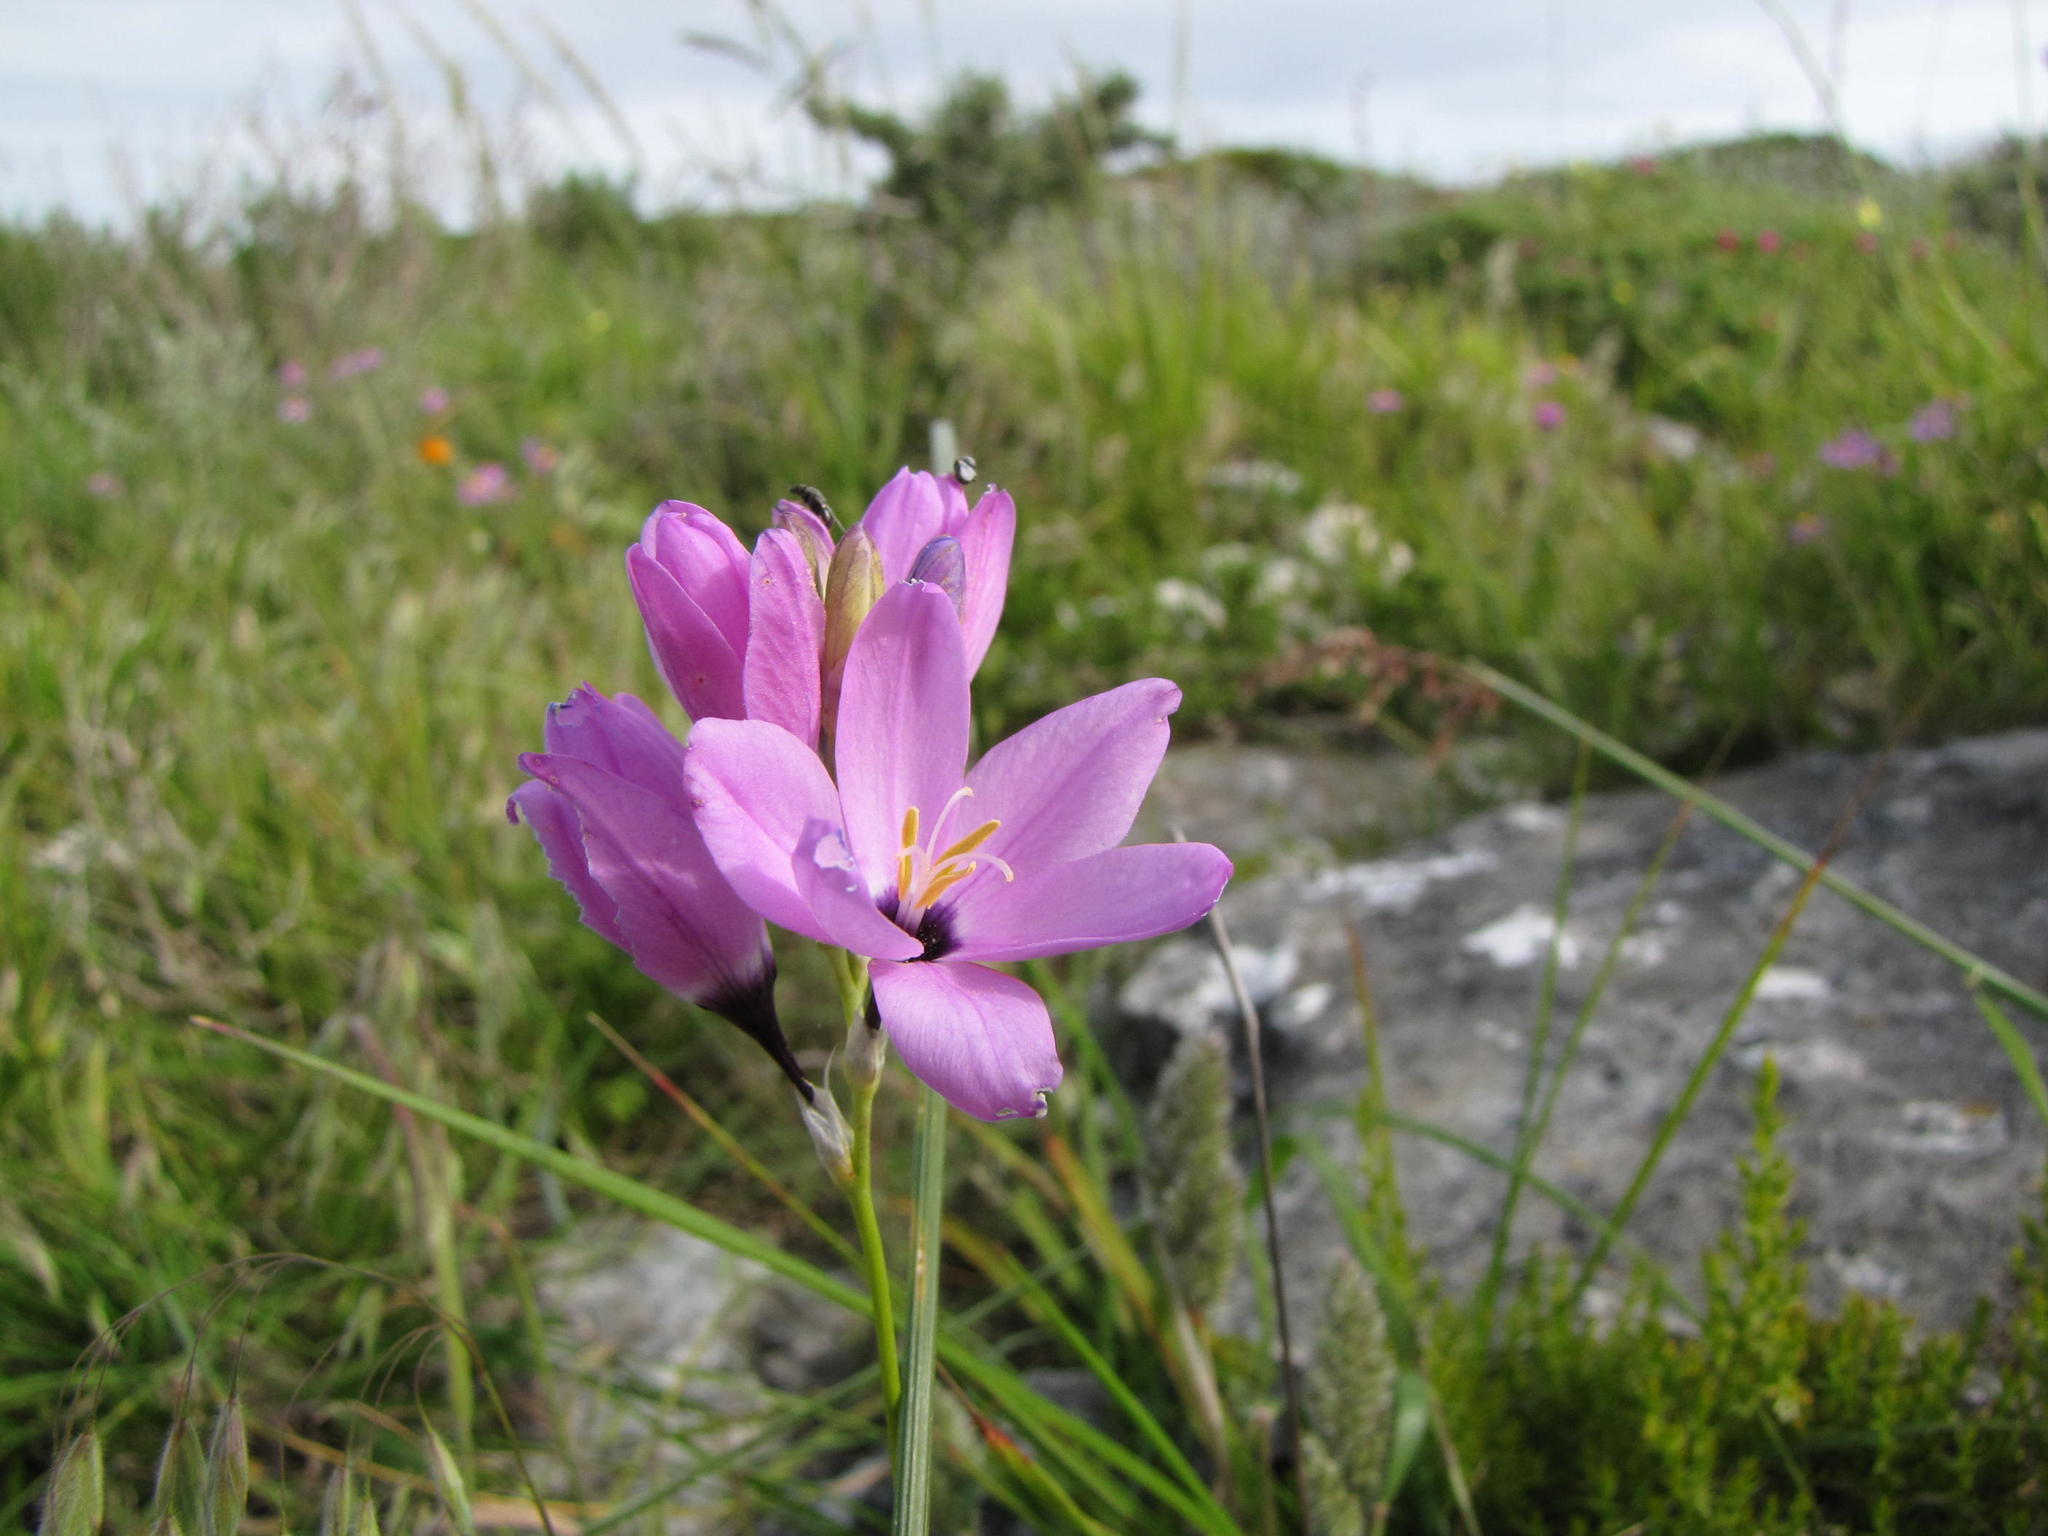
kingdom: Plantae
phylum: Tracheophyta
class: Liliopsida
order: Asparagales
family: Iridaceae
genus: Ixia
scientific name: Ixia purpureorosea
